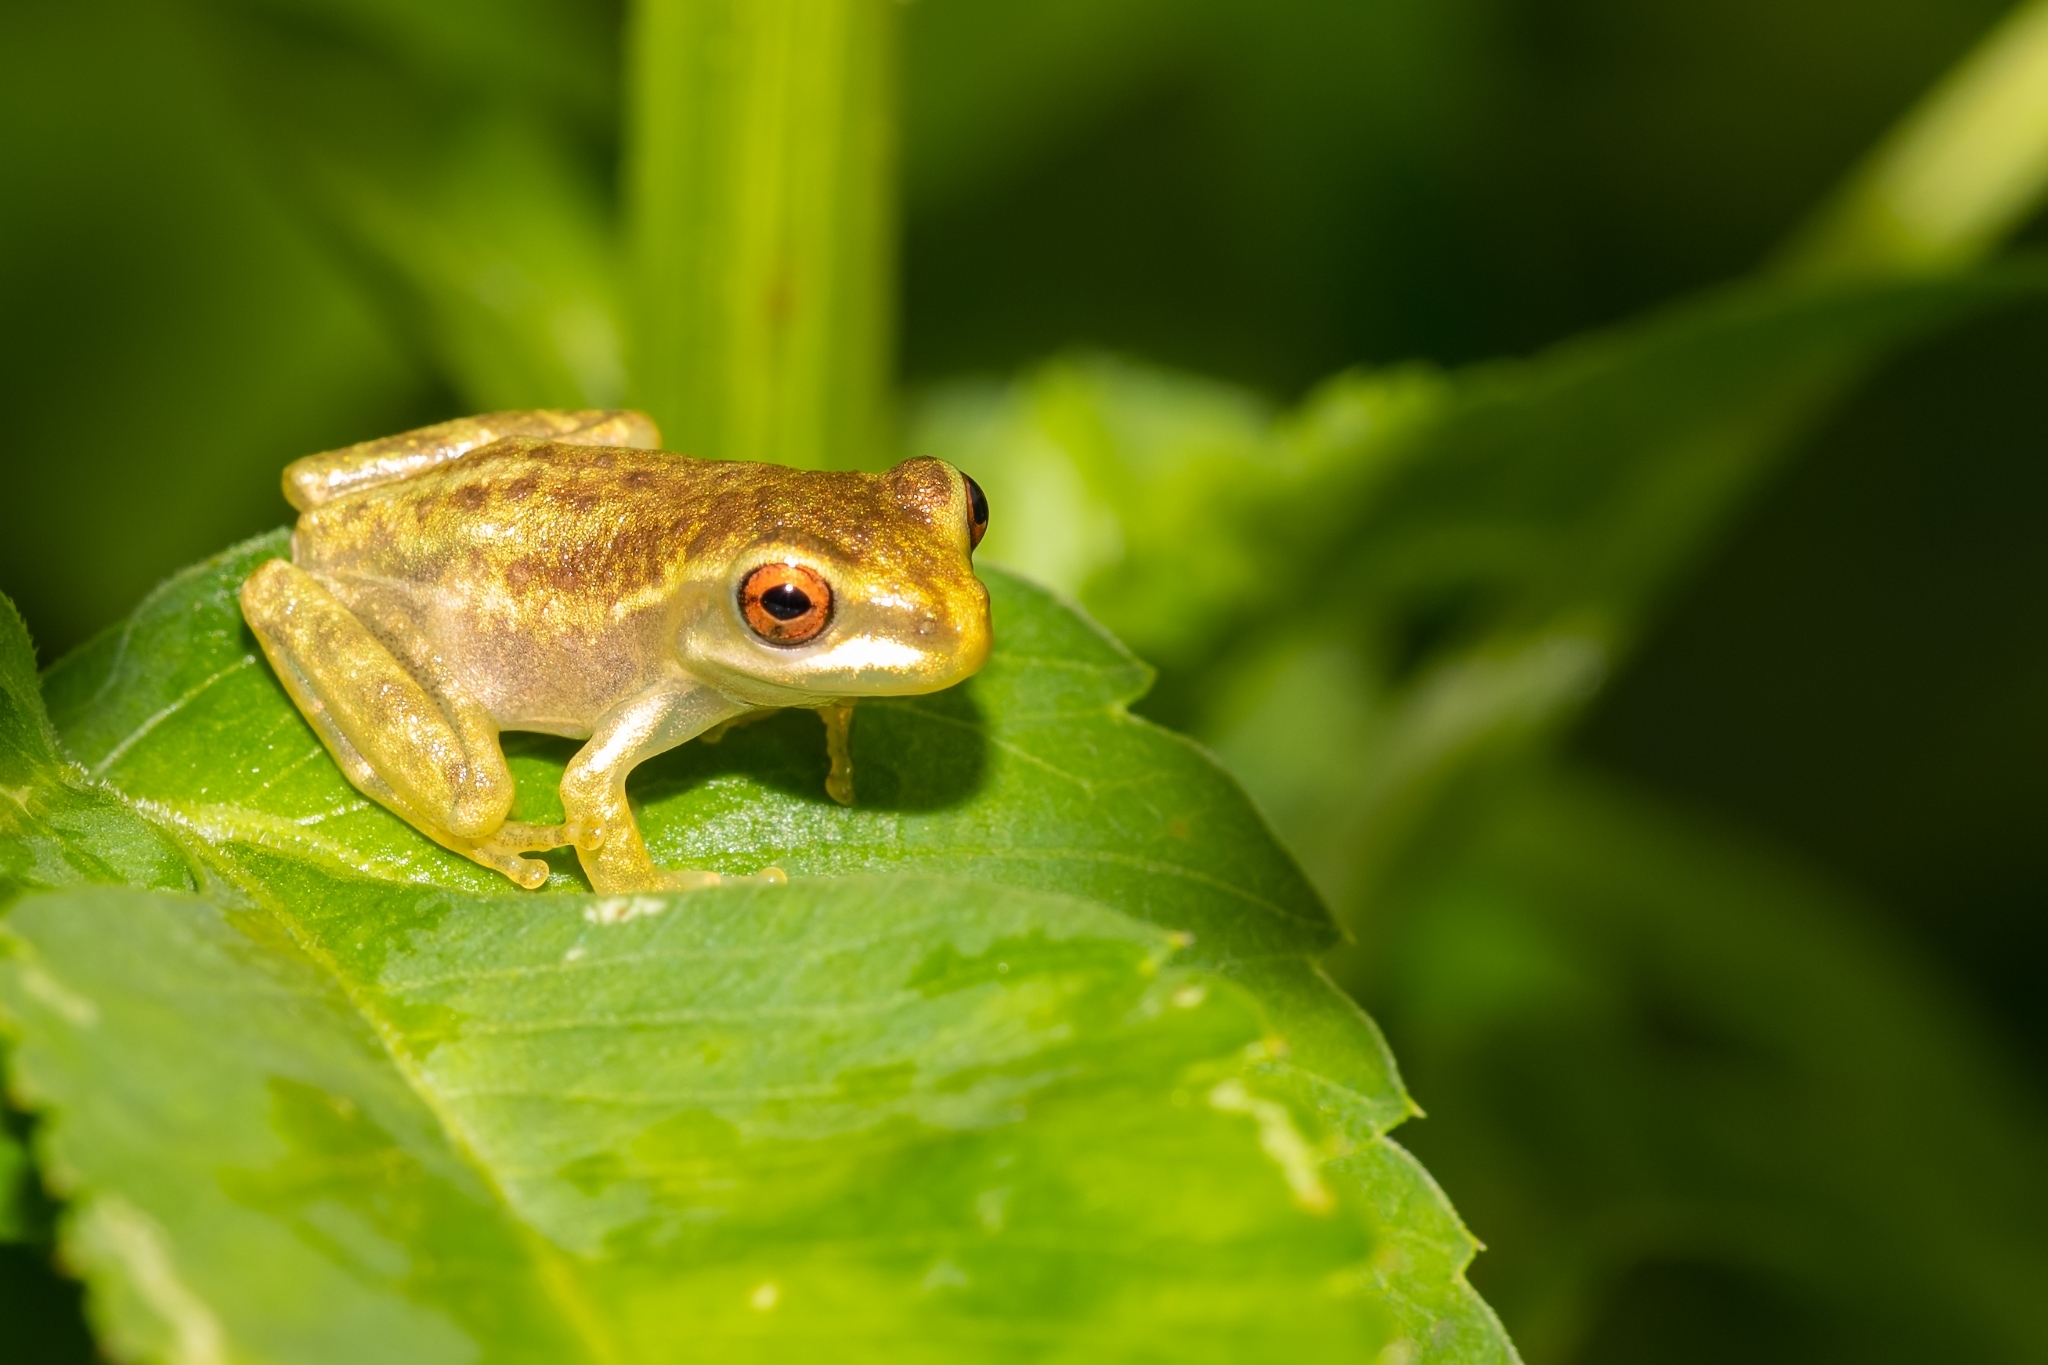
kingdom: Animalia
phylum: Chordata
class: Amphibia
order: Anura
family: Hylidae
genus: Osteopilus
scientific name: Osteopilus septentrionalis
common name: Cuban treefrog
